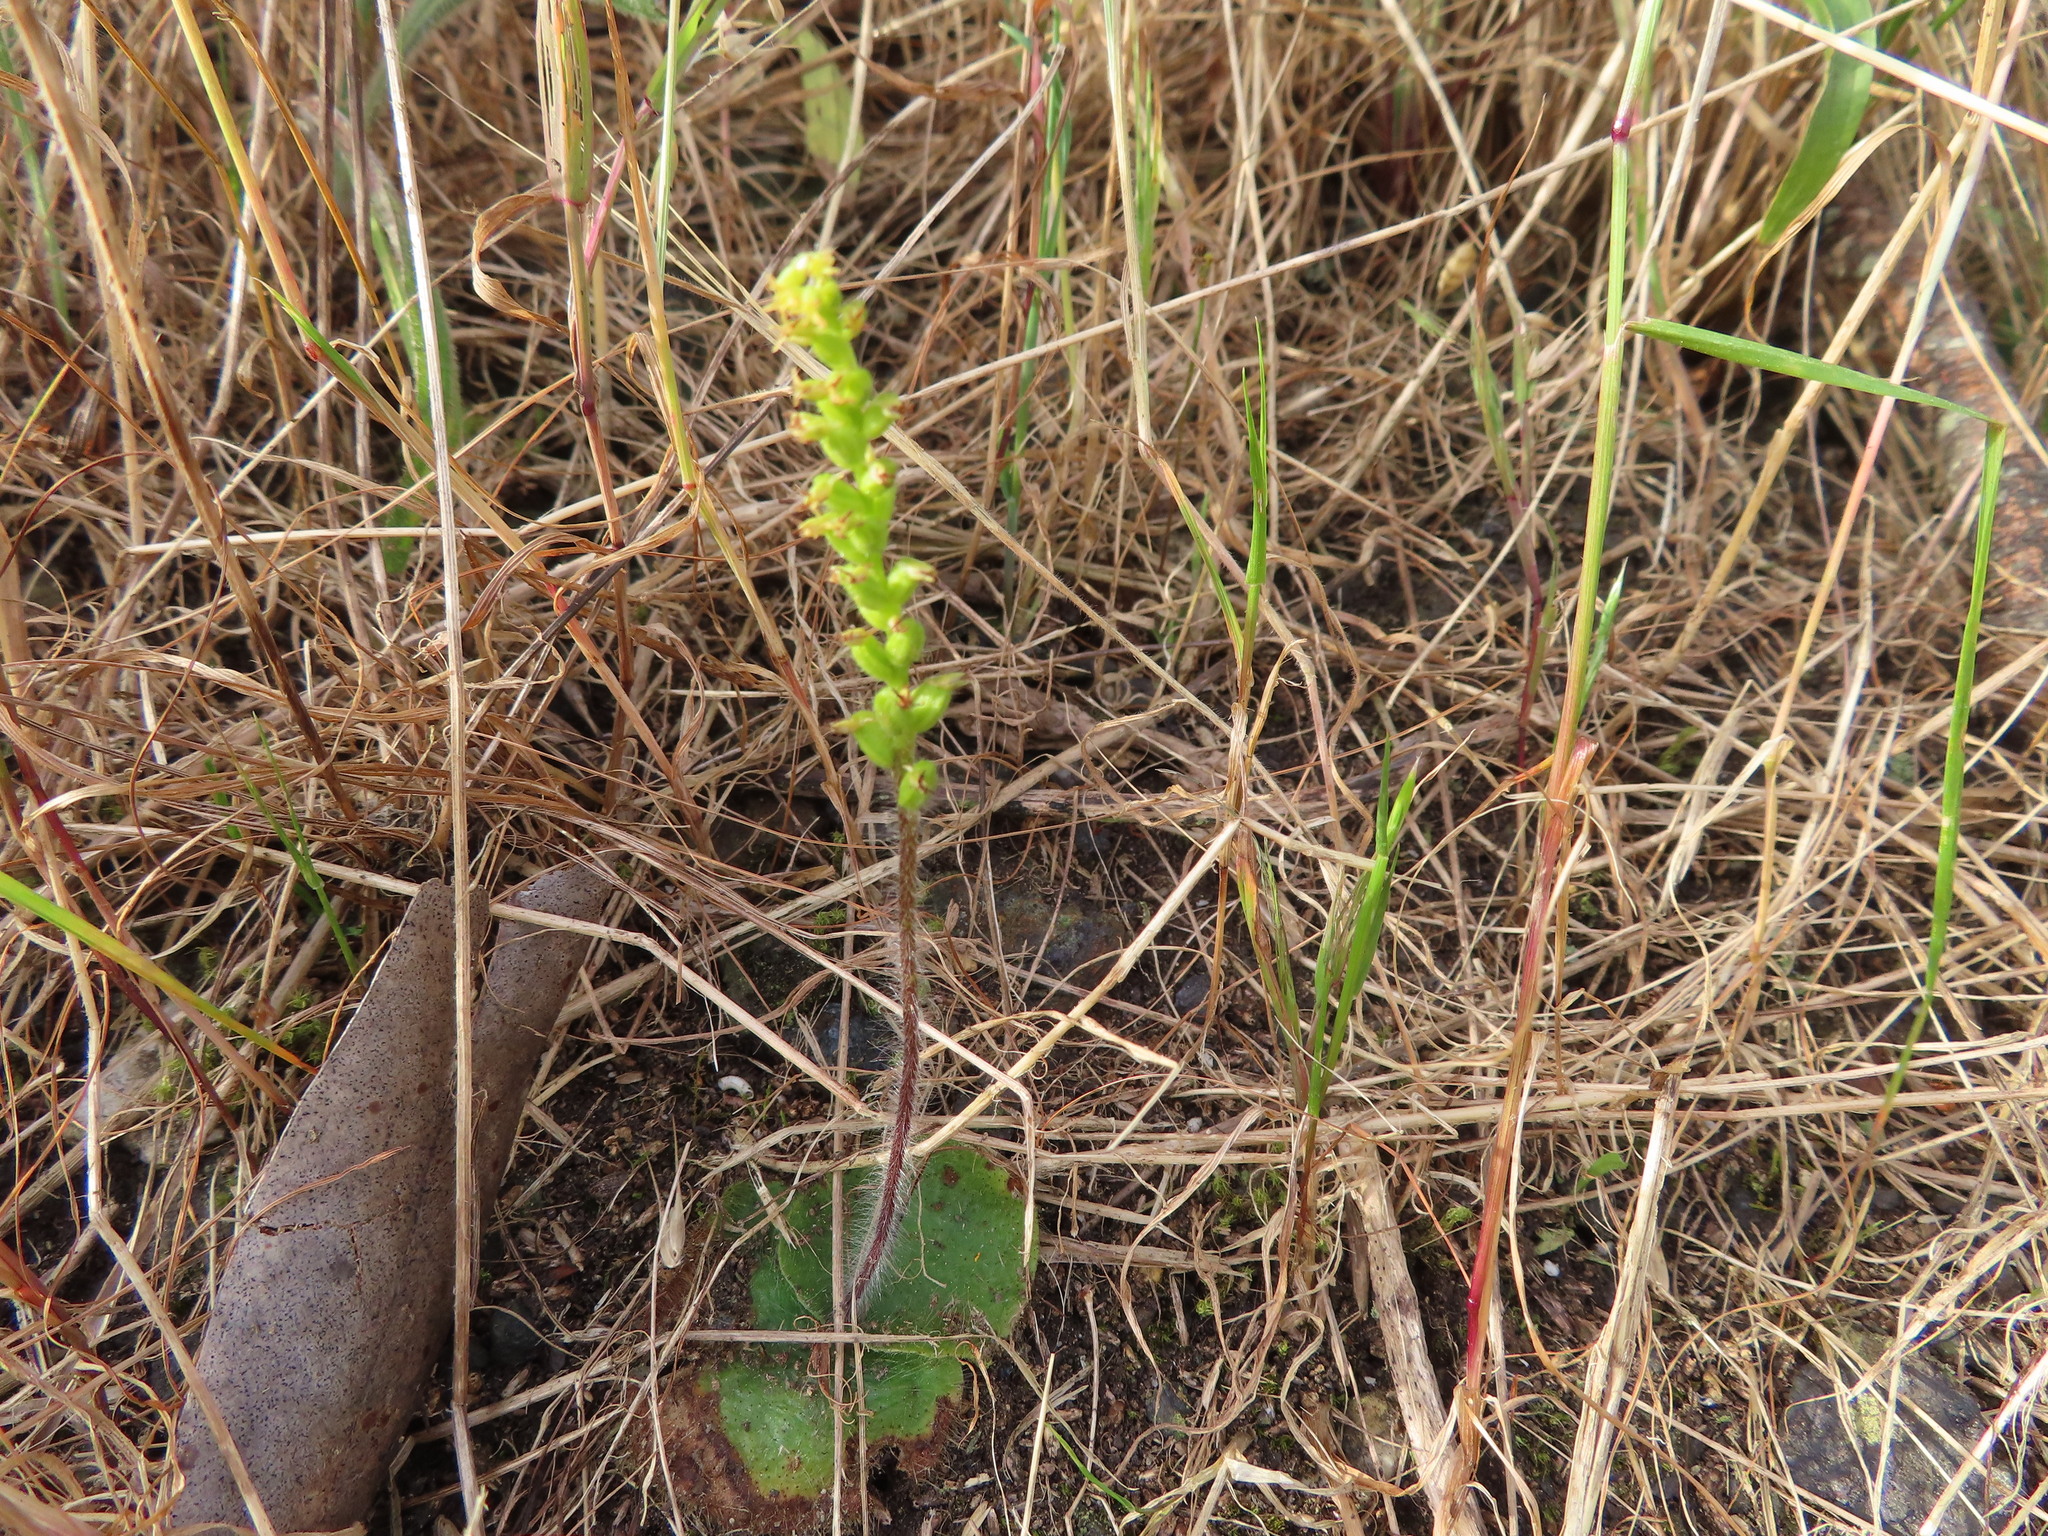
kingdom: Plantae
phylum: Tracheophyta
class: Liliopsida
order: Asparagales
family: Orchidaceae
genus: Holothrix
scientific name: Holothrix villosa
